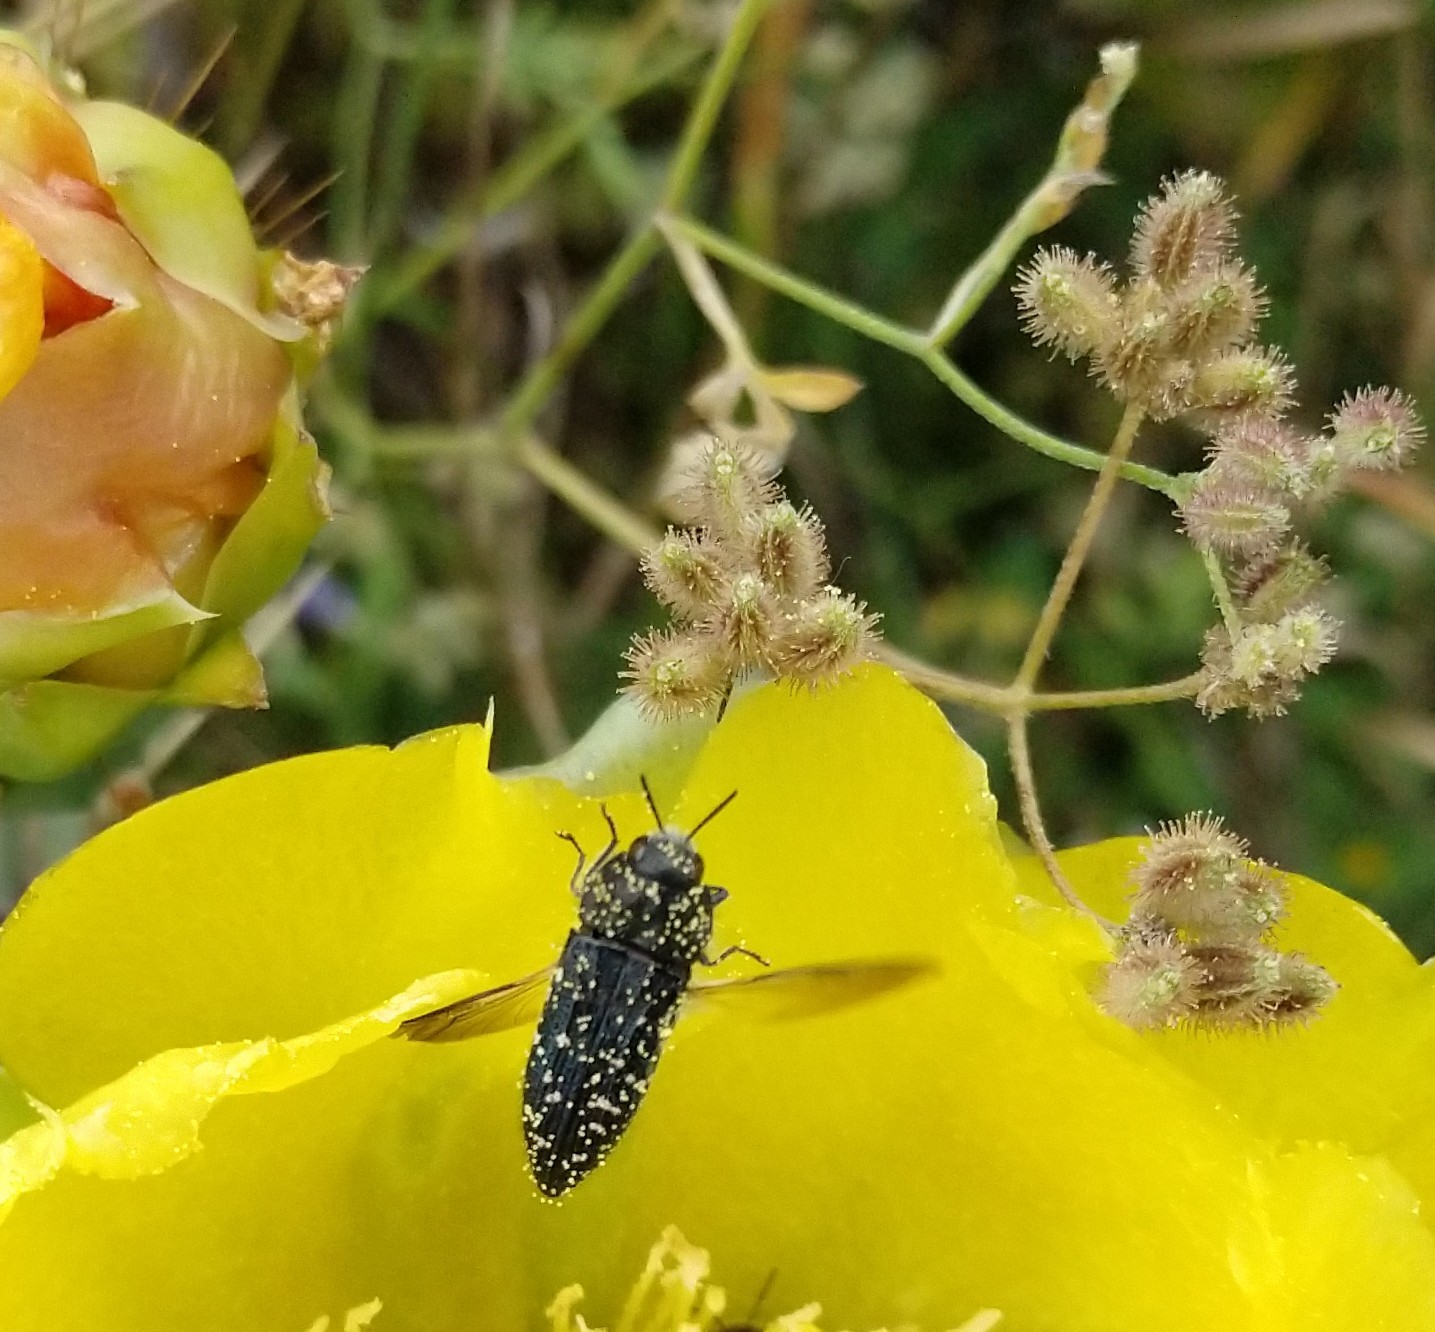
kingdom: Animalia
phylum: Arthropoda
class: Insecta
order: Coleoptera
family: Buprestidae
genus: Acmaeodera
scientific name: Acmaeodera ornatoides
